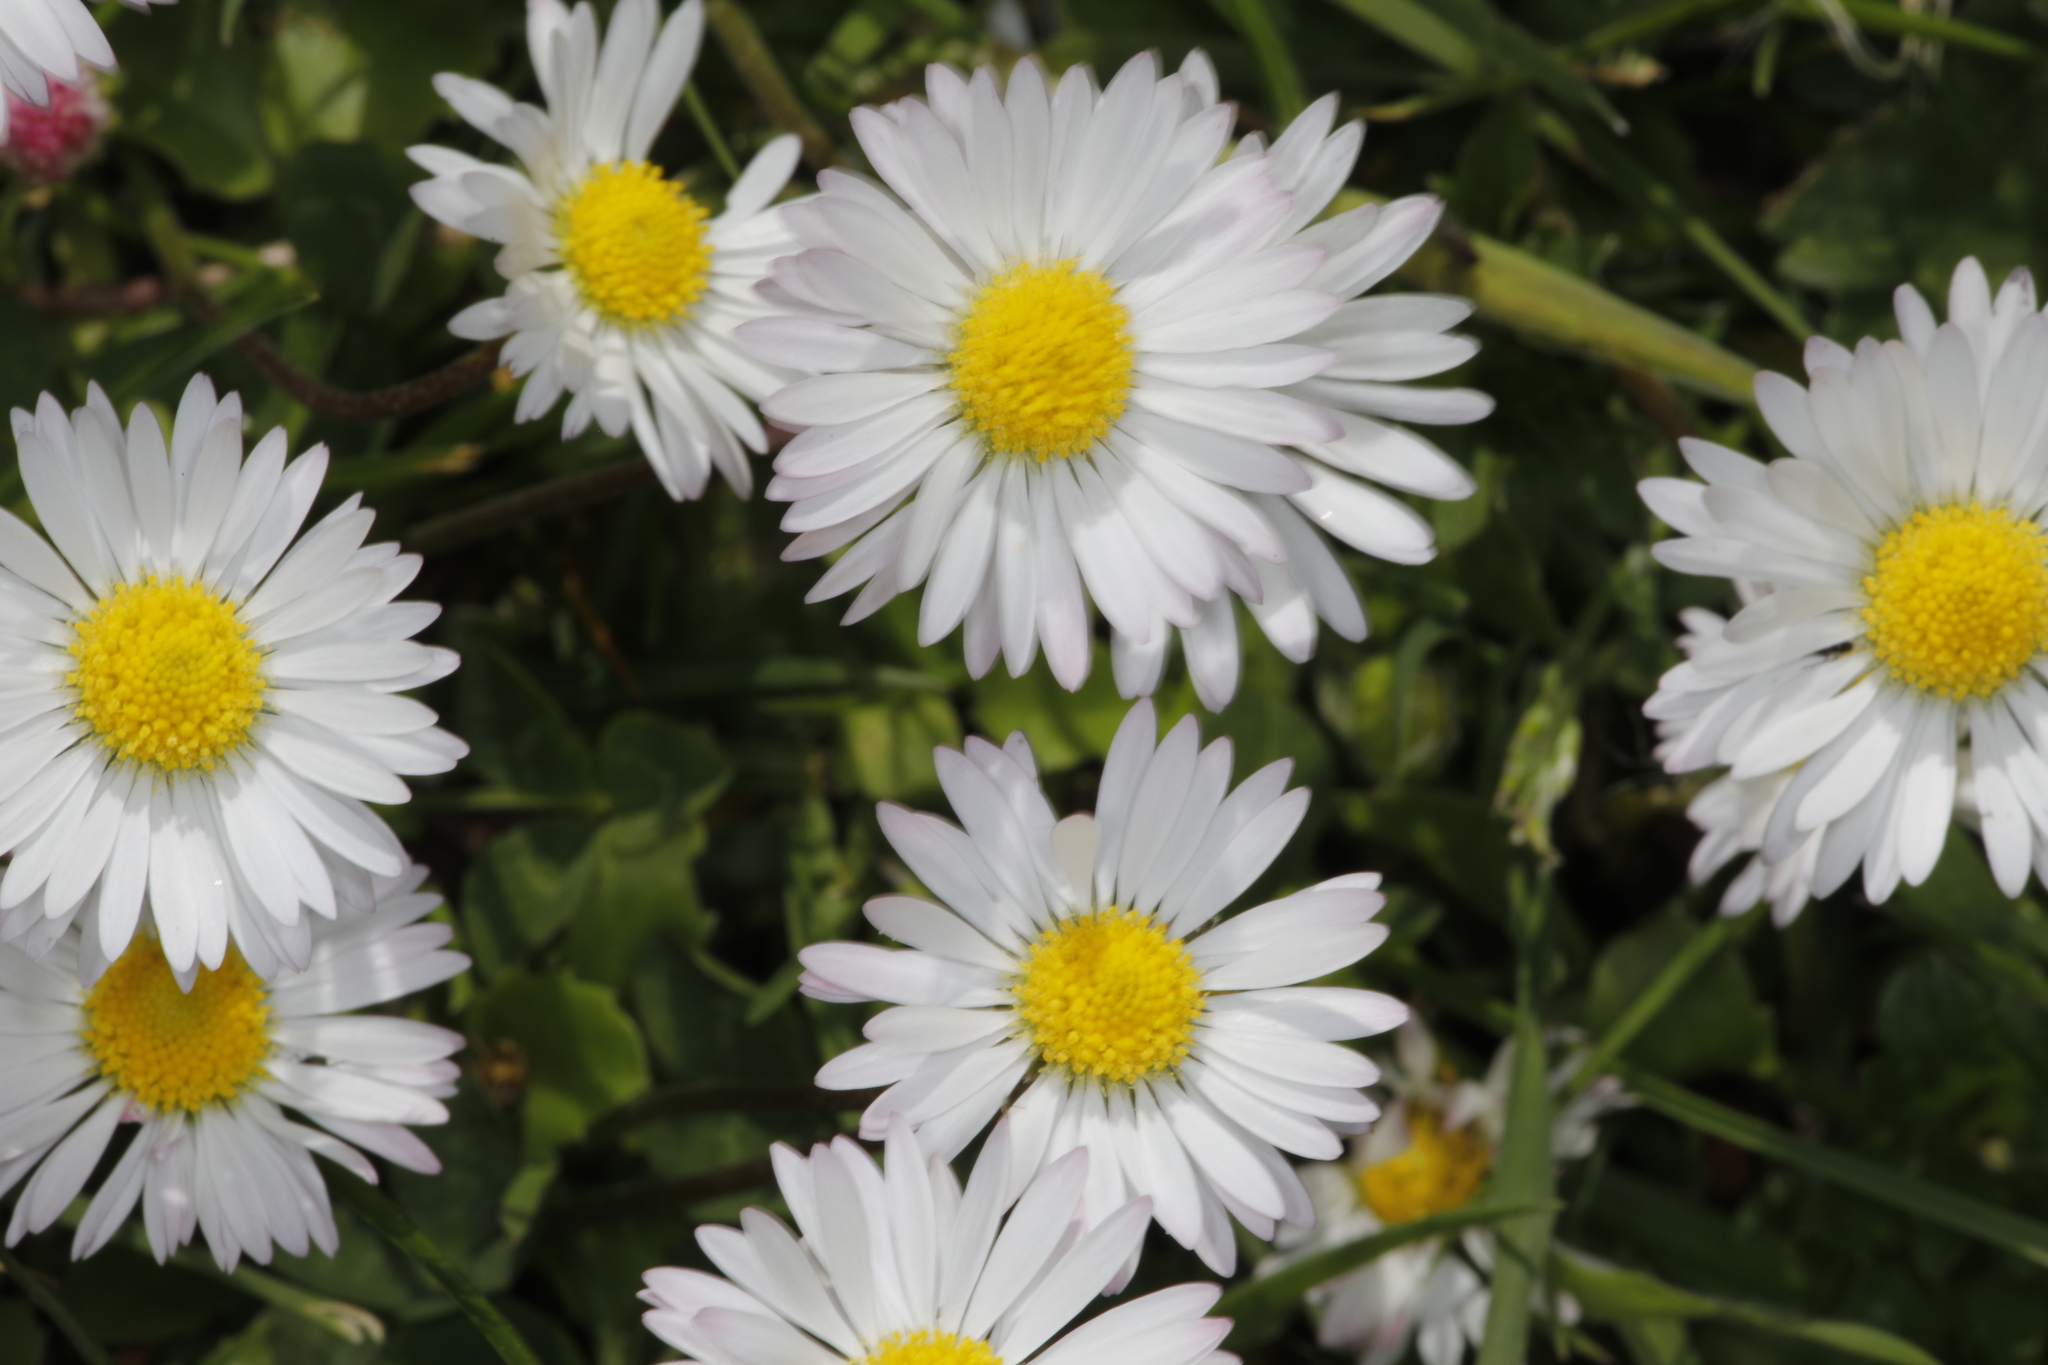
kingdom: Plantae
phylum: Tracheophyta
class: Magnoliopsida
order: Asterales
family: Asteraceae
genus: Bellis
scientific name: Bellis perennis
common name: Lawndaisy
